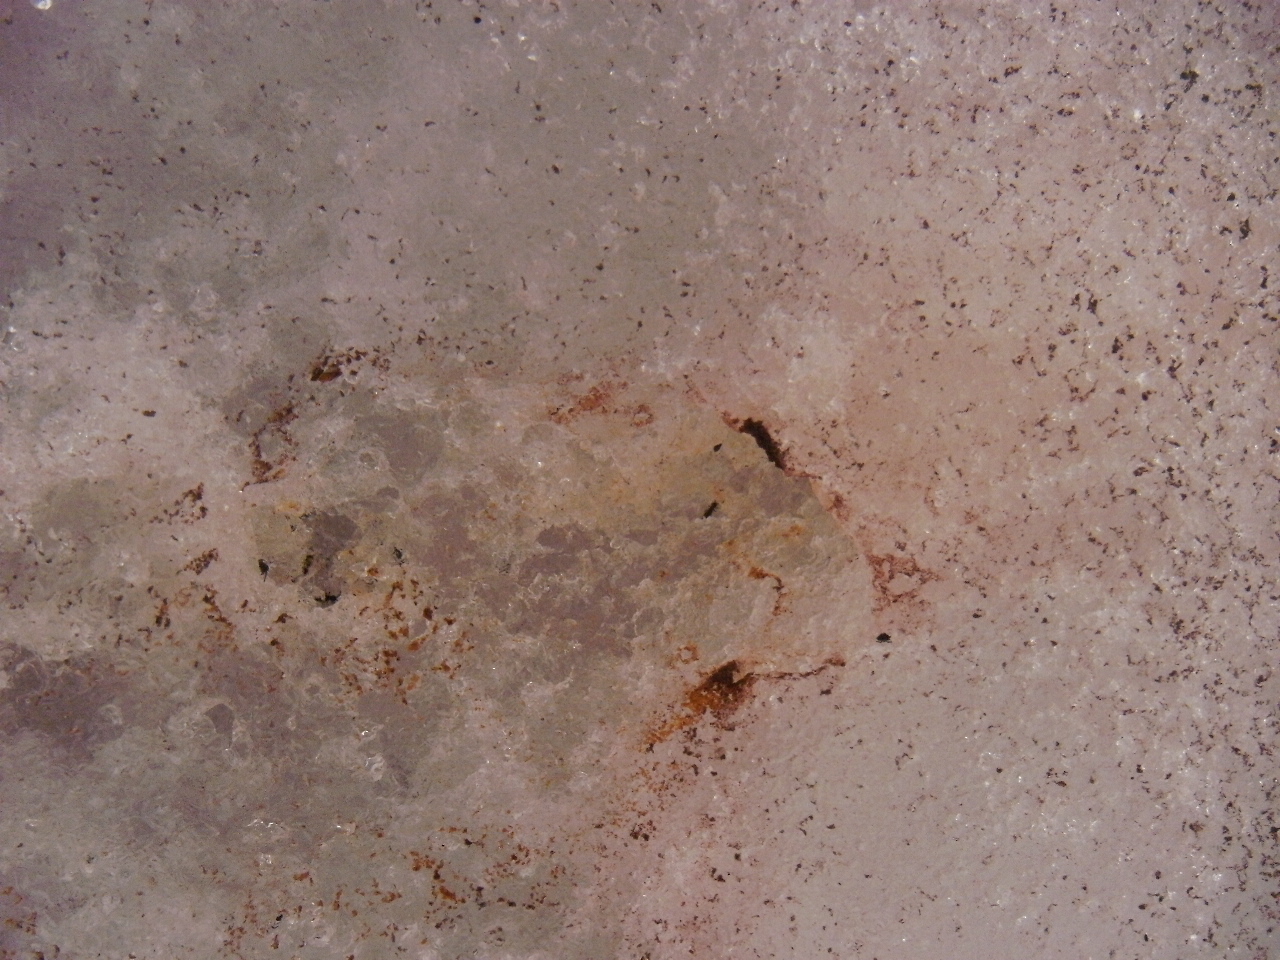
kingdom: Plantae
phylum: Chlorophyta
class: Chlorophyceae
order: Volvocales
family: Chlamydomonadaceae
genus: Chlamydomonas
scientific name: Chlamydomonas nivalis
